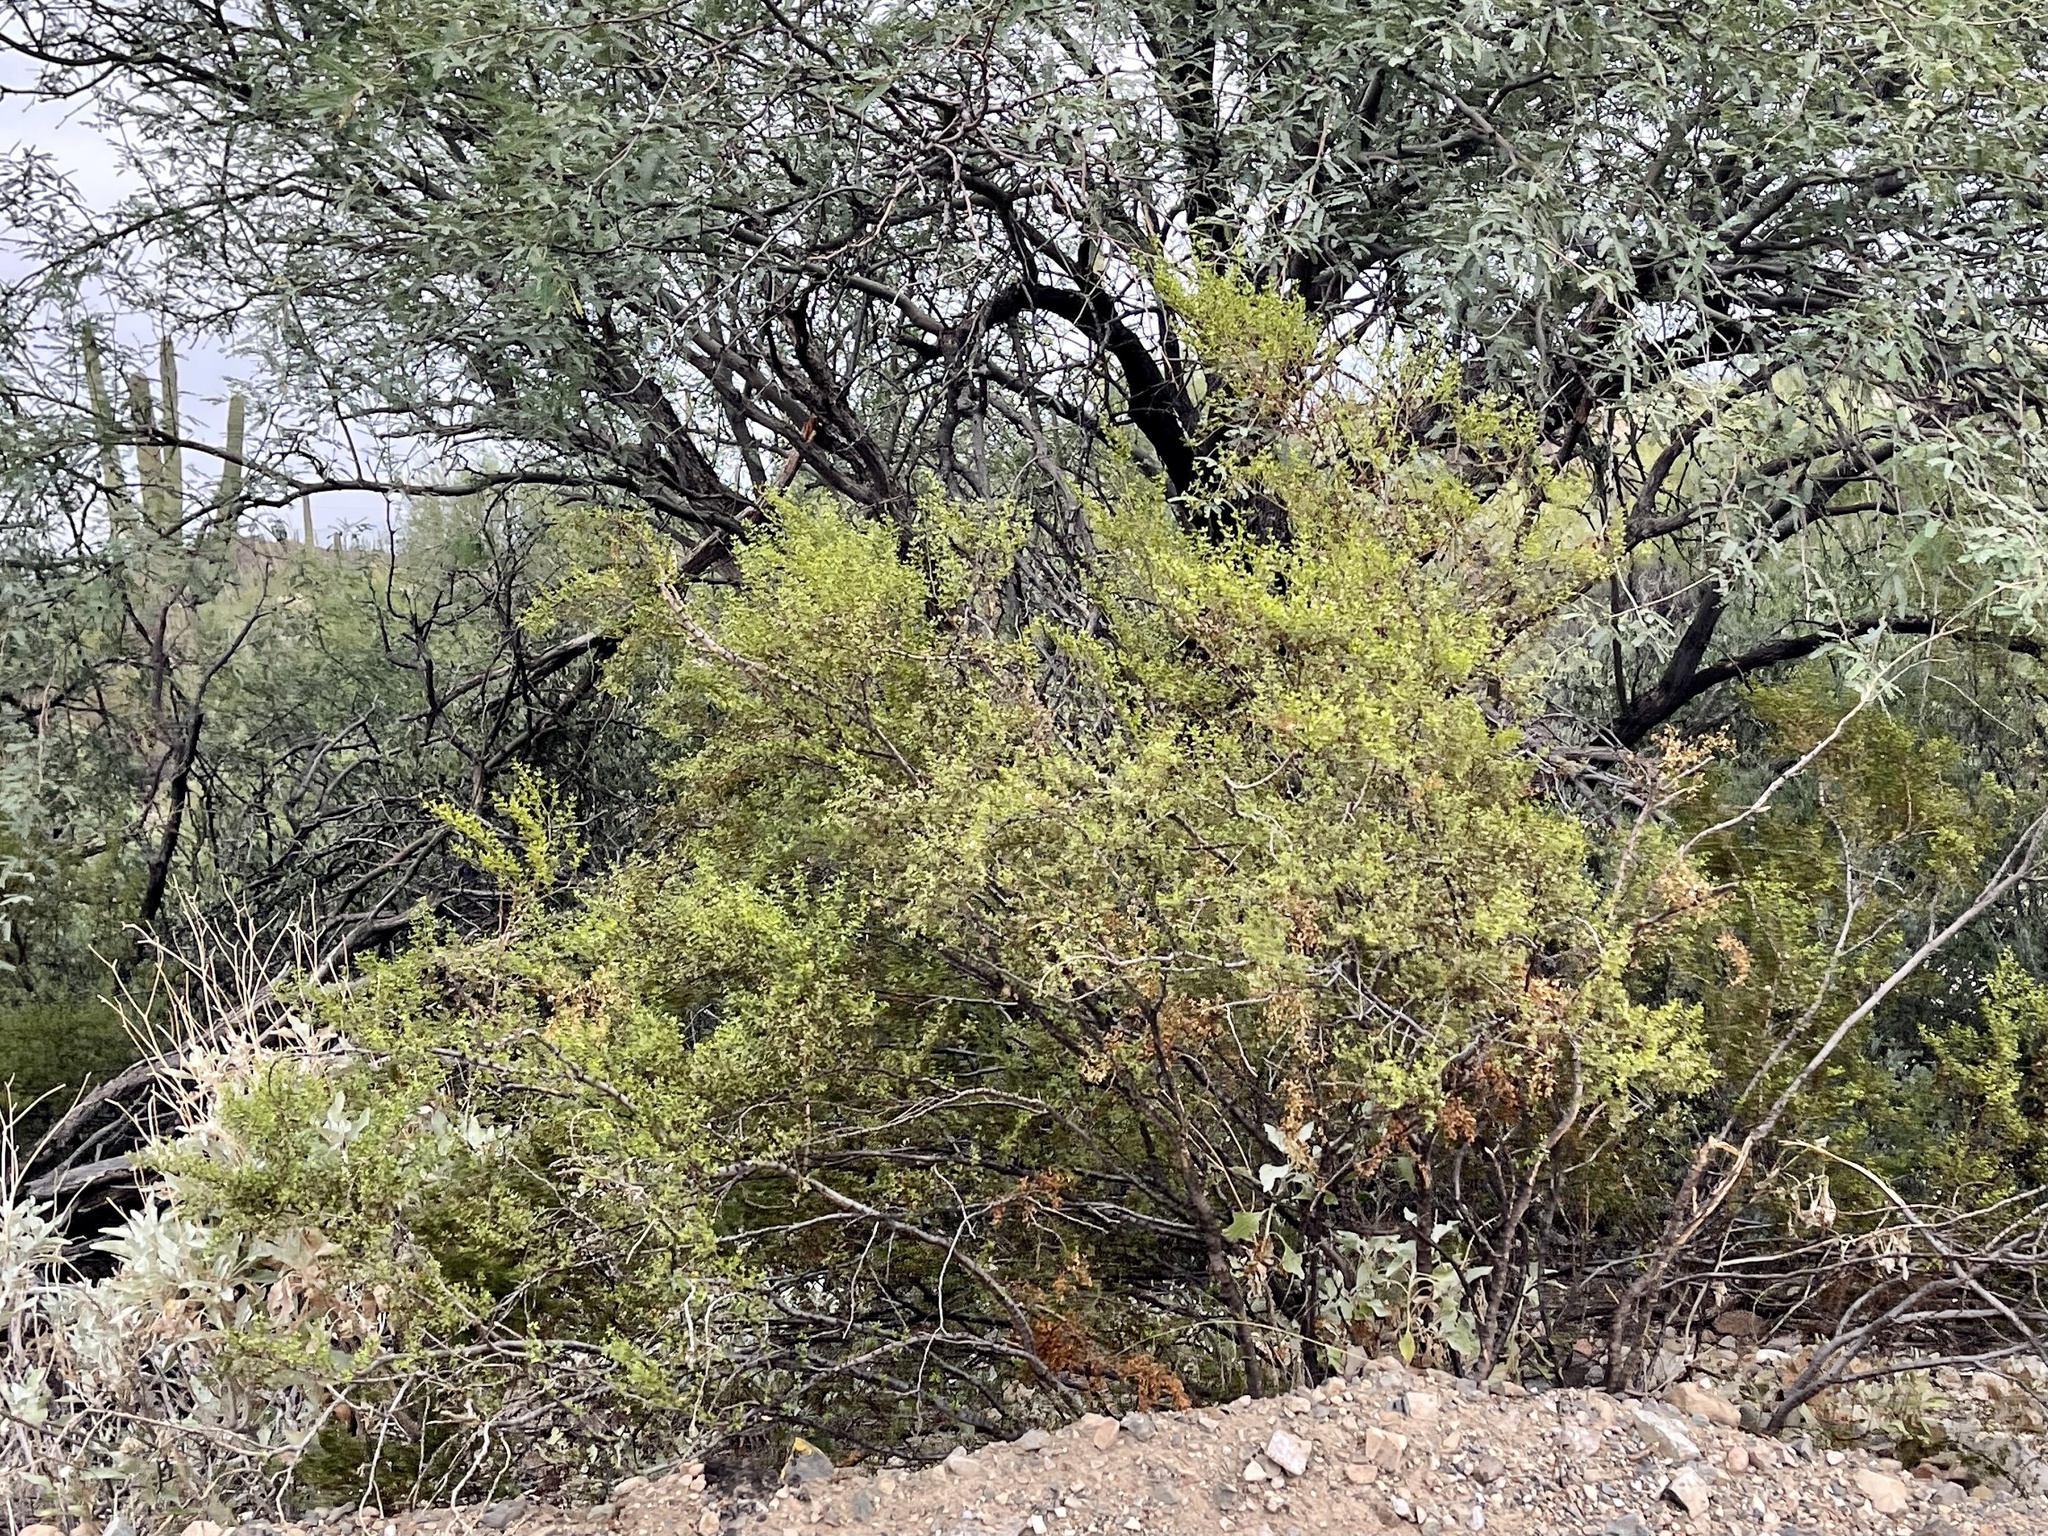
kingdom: Plantae
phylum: Tracheophyta
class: Magnoliopsida
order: Zygophyllales
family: Zygophyllaceae
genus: Larrea
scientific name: Larrea tridentata
